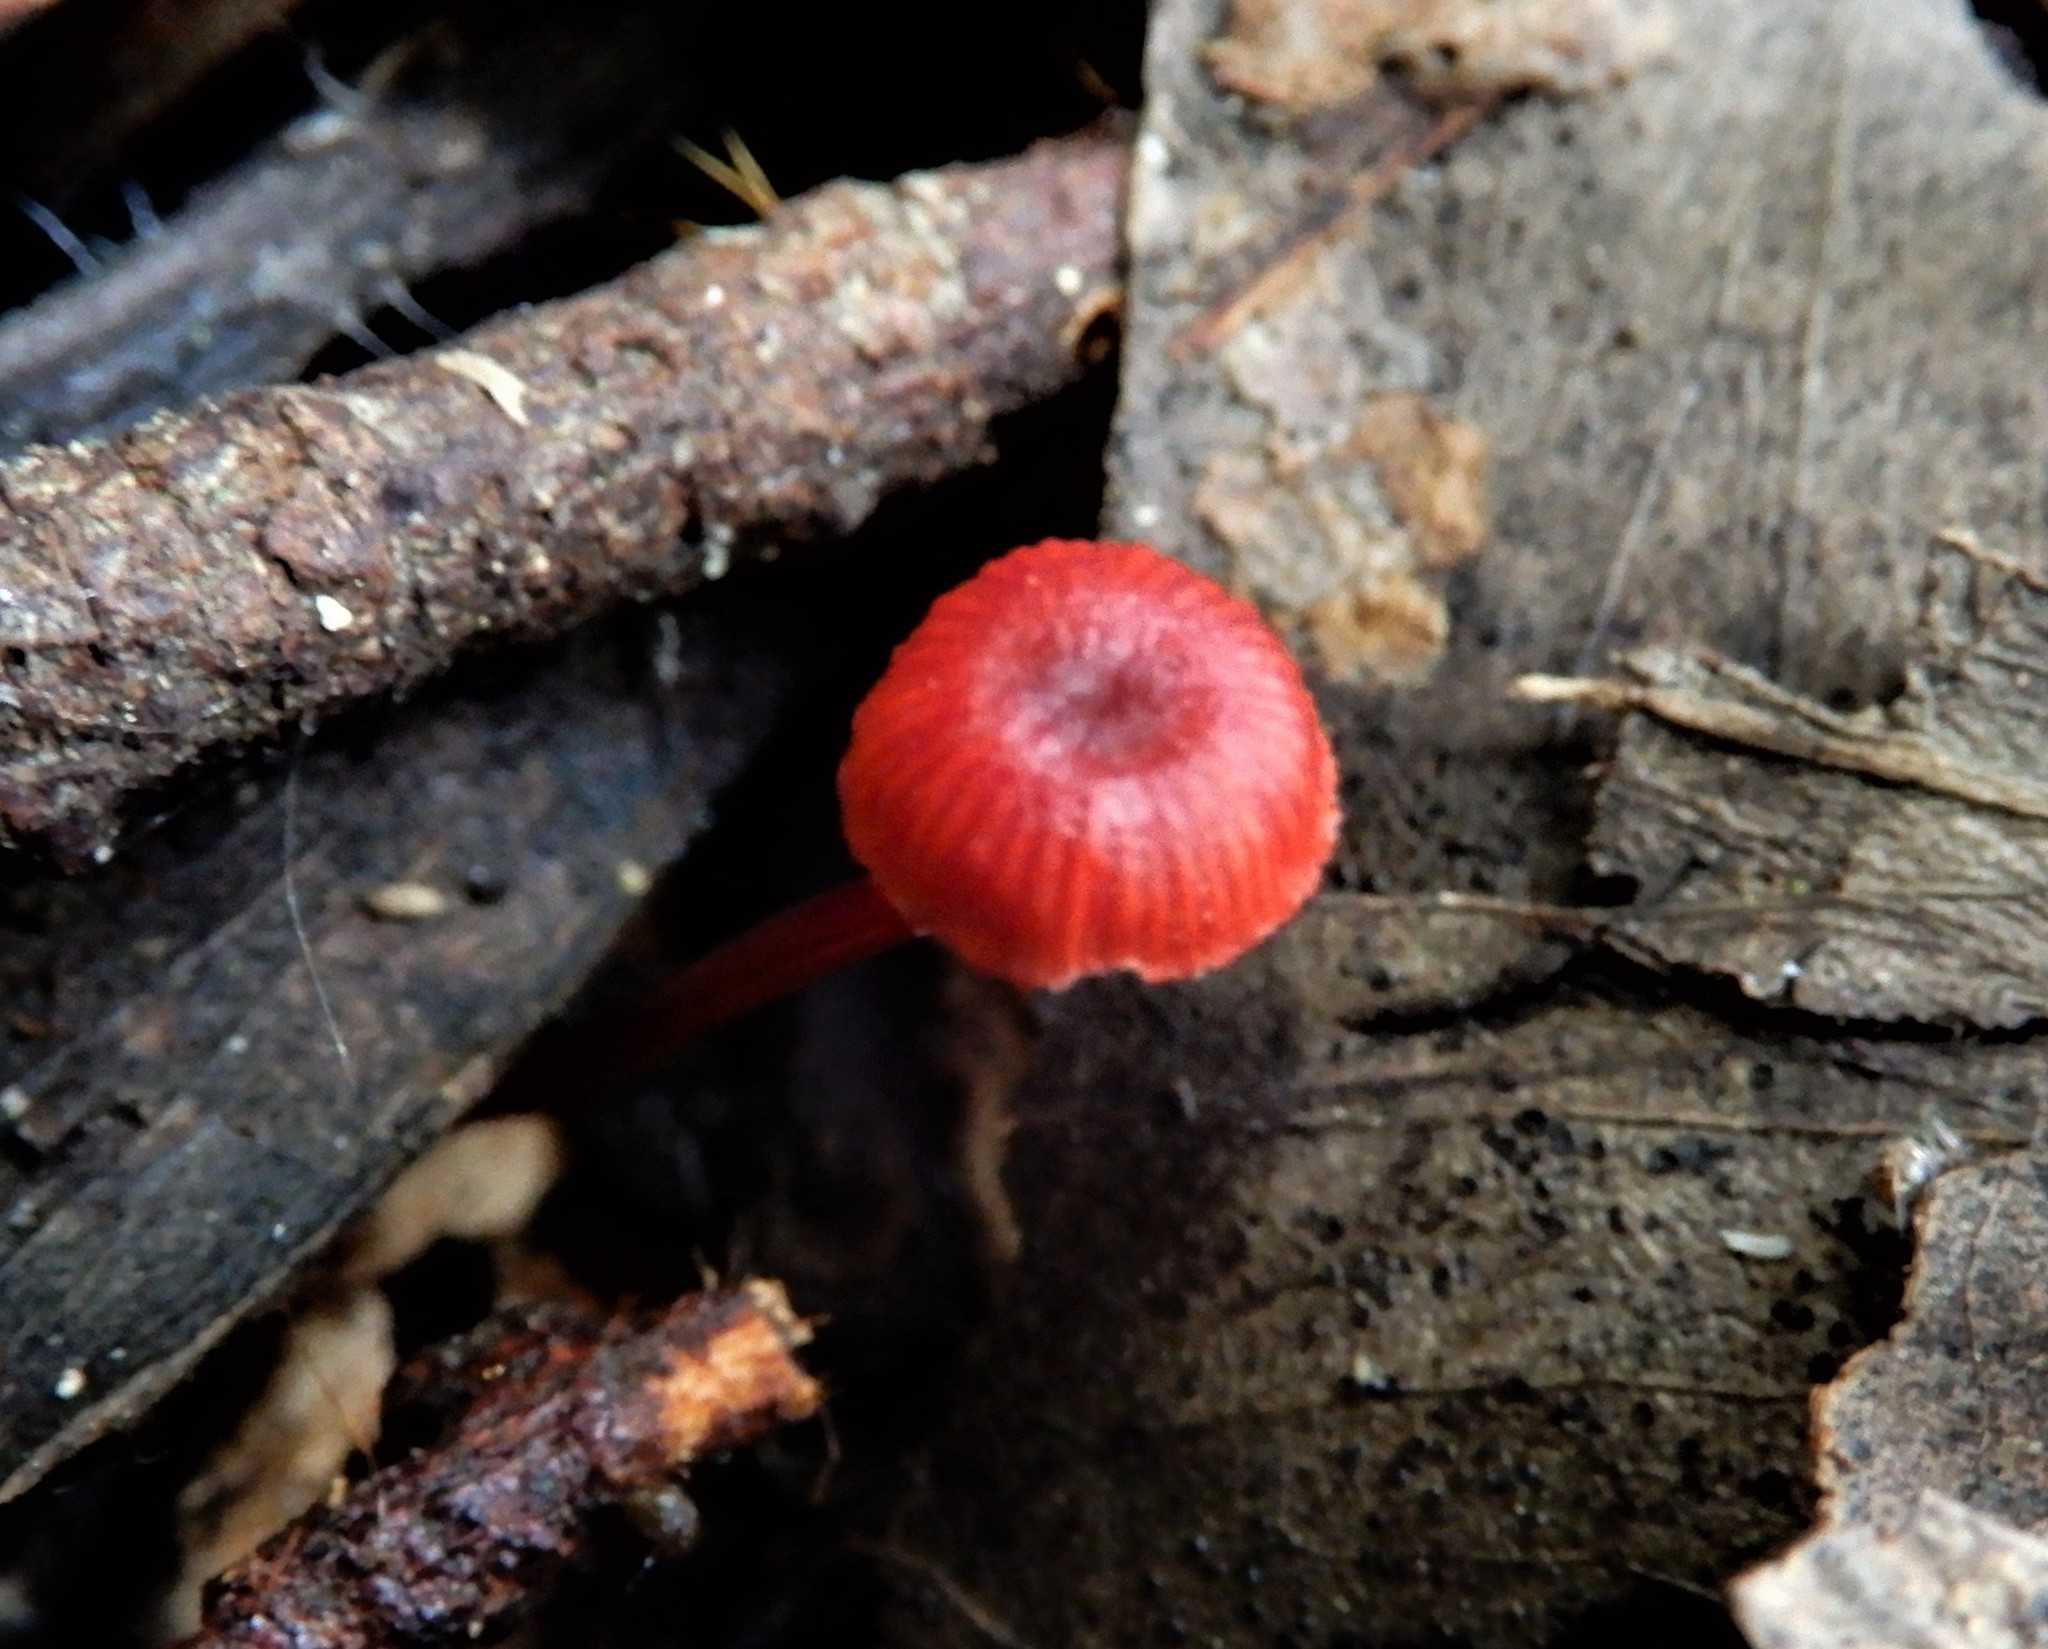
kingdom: Fungi
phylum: Basidiomycota
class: Agaricomycetes
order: Agaricales
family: Mycenaceae
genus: Cruentomycena
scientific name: Cruentomycena viscidocruenta
